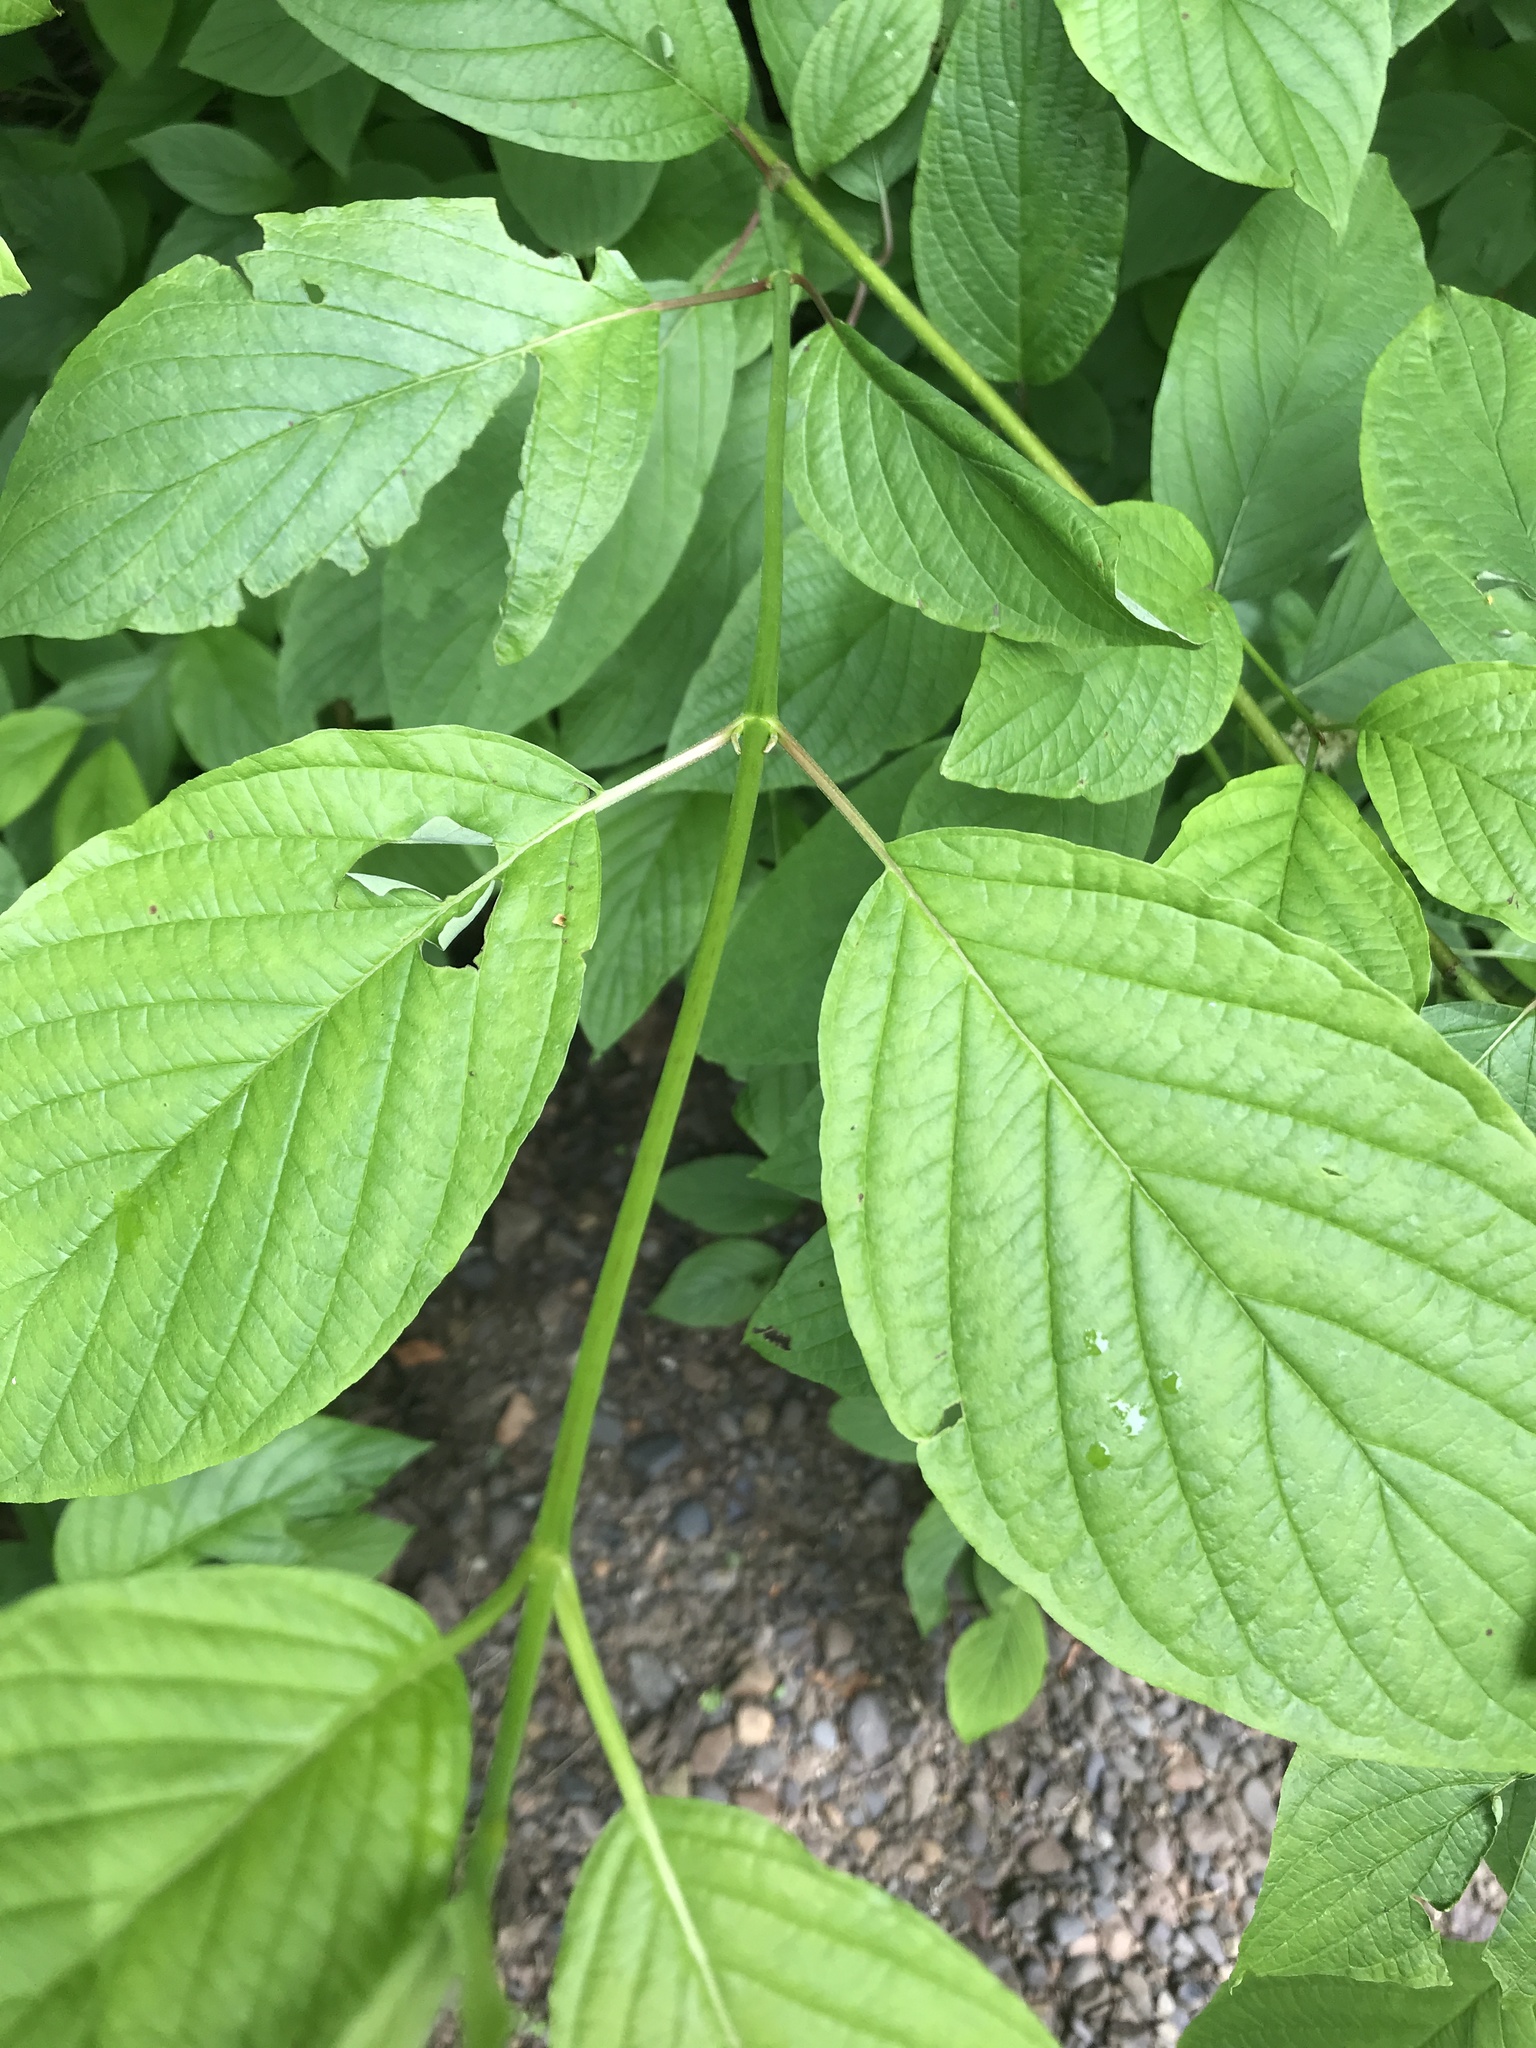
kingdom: Plantae
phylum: Tracheophyta
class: Magnoliopsida
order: Cornales
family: Cornaceae
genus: Cornus
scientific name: Cornus sericea
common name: Red-osier dogwood
